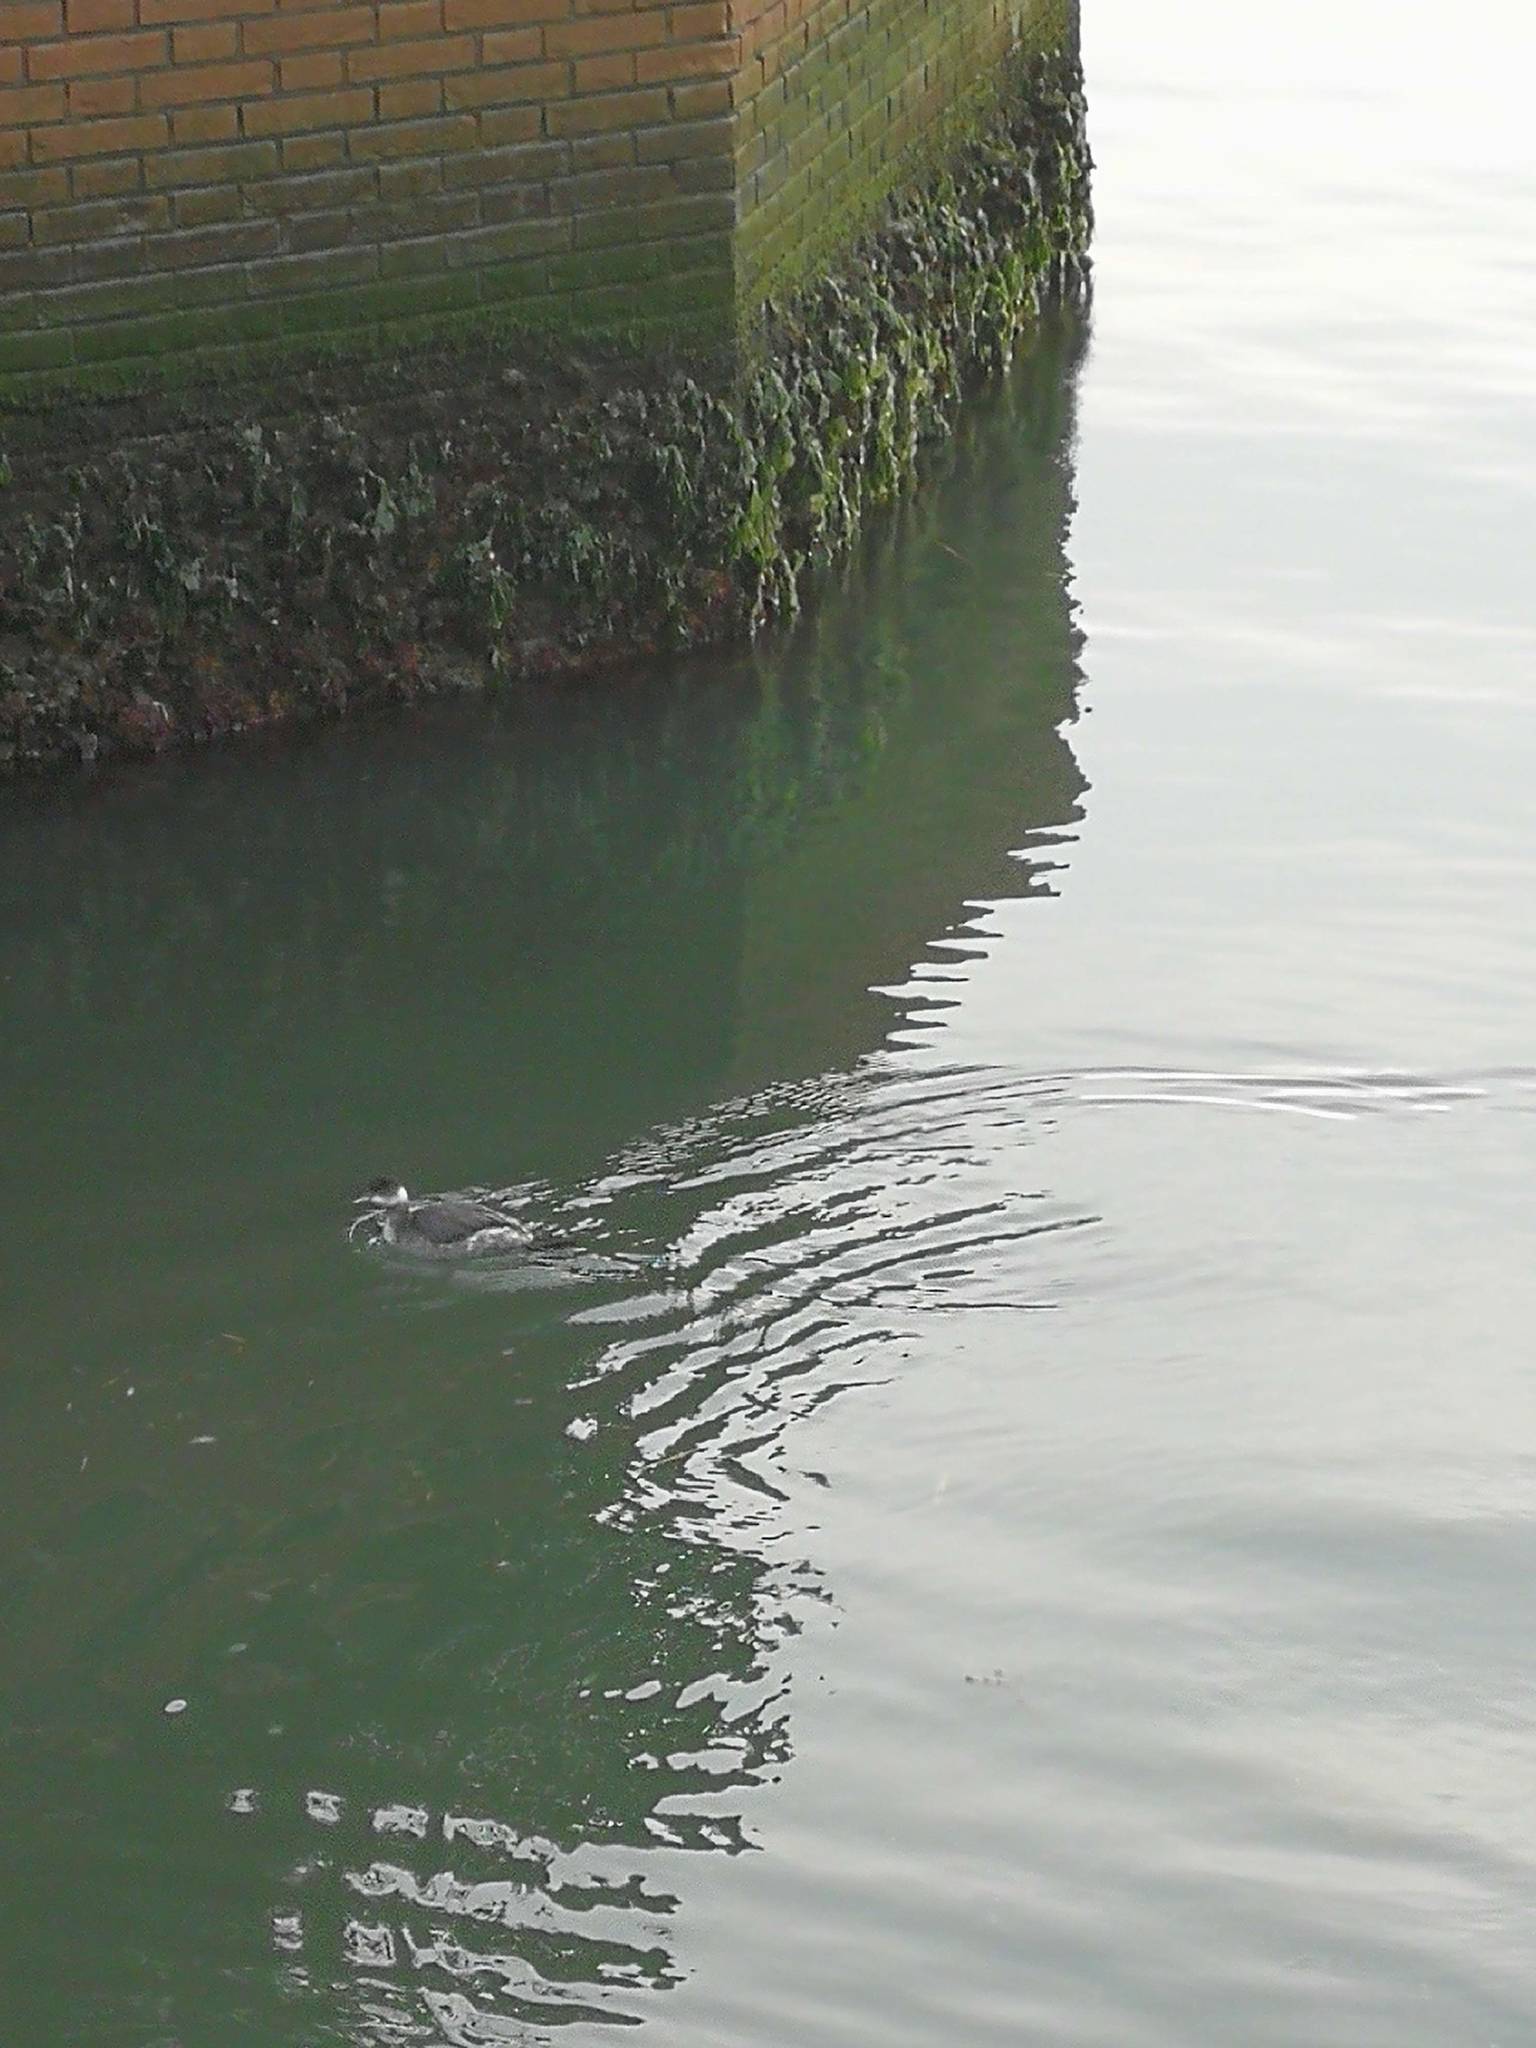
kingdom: Animalia
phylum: Chordata
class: Aves
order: Podicipediformes
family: Podicipedidae
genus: Podiceps
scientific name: Podiceps nigricollis
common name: Black-necked grebe
